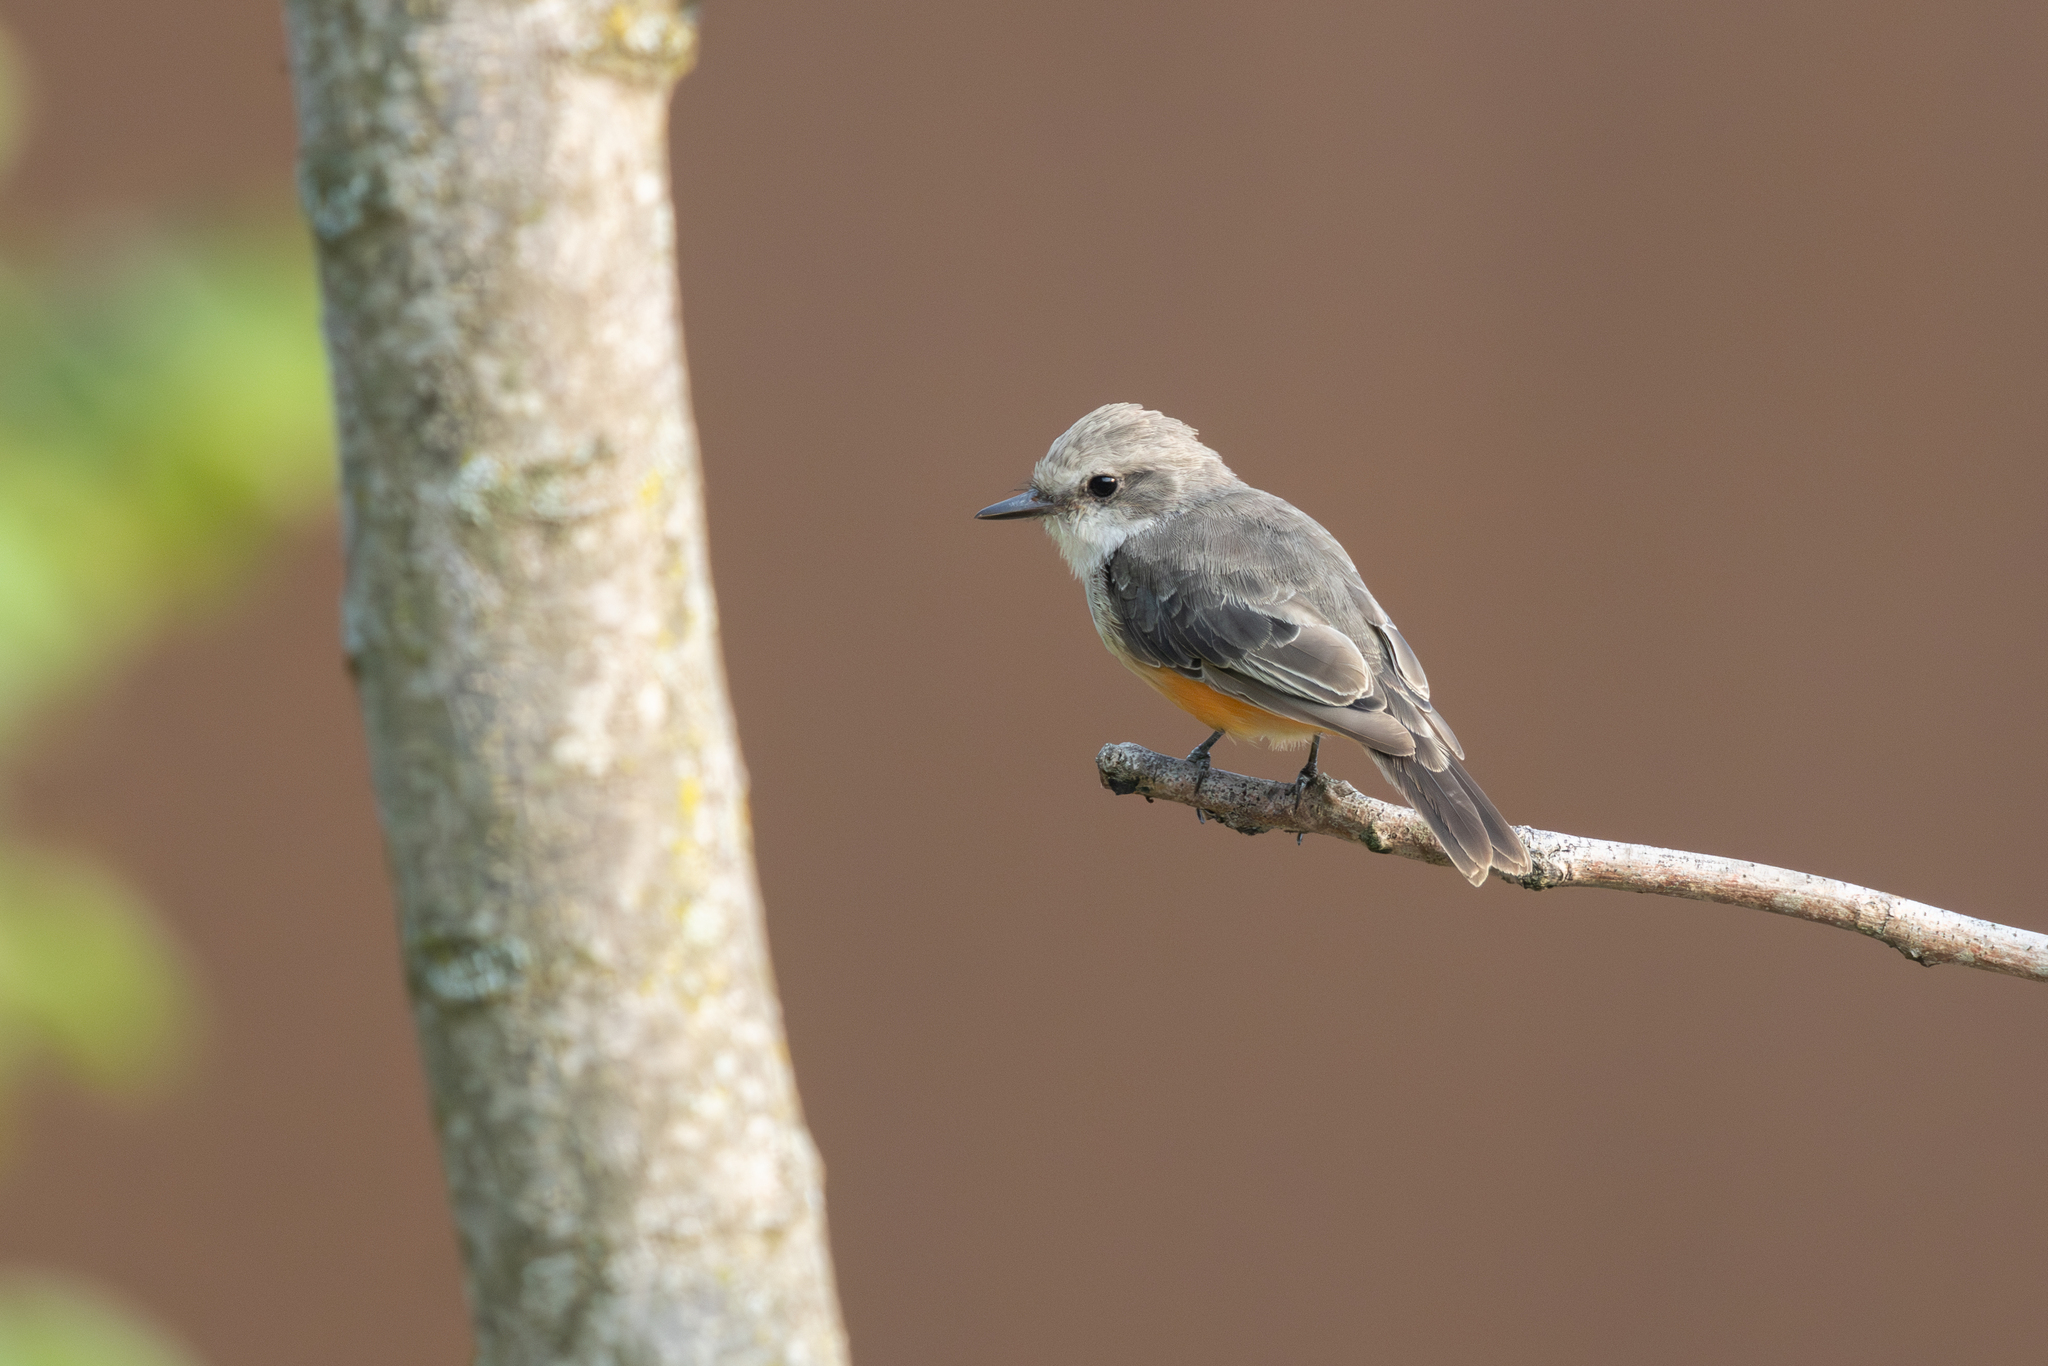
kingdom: Animalia
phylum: Chordata
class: Aves
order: Passeriformes
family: Tyrannidae
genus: Pyrocephalus
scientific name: Pyrocephalus rubinus
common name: Vermilion flycatcher
